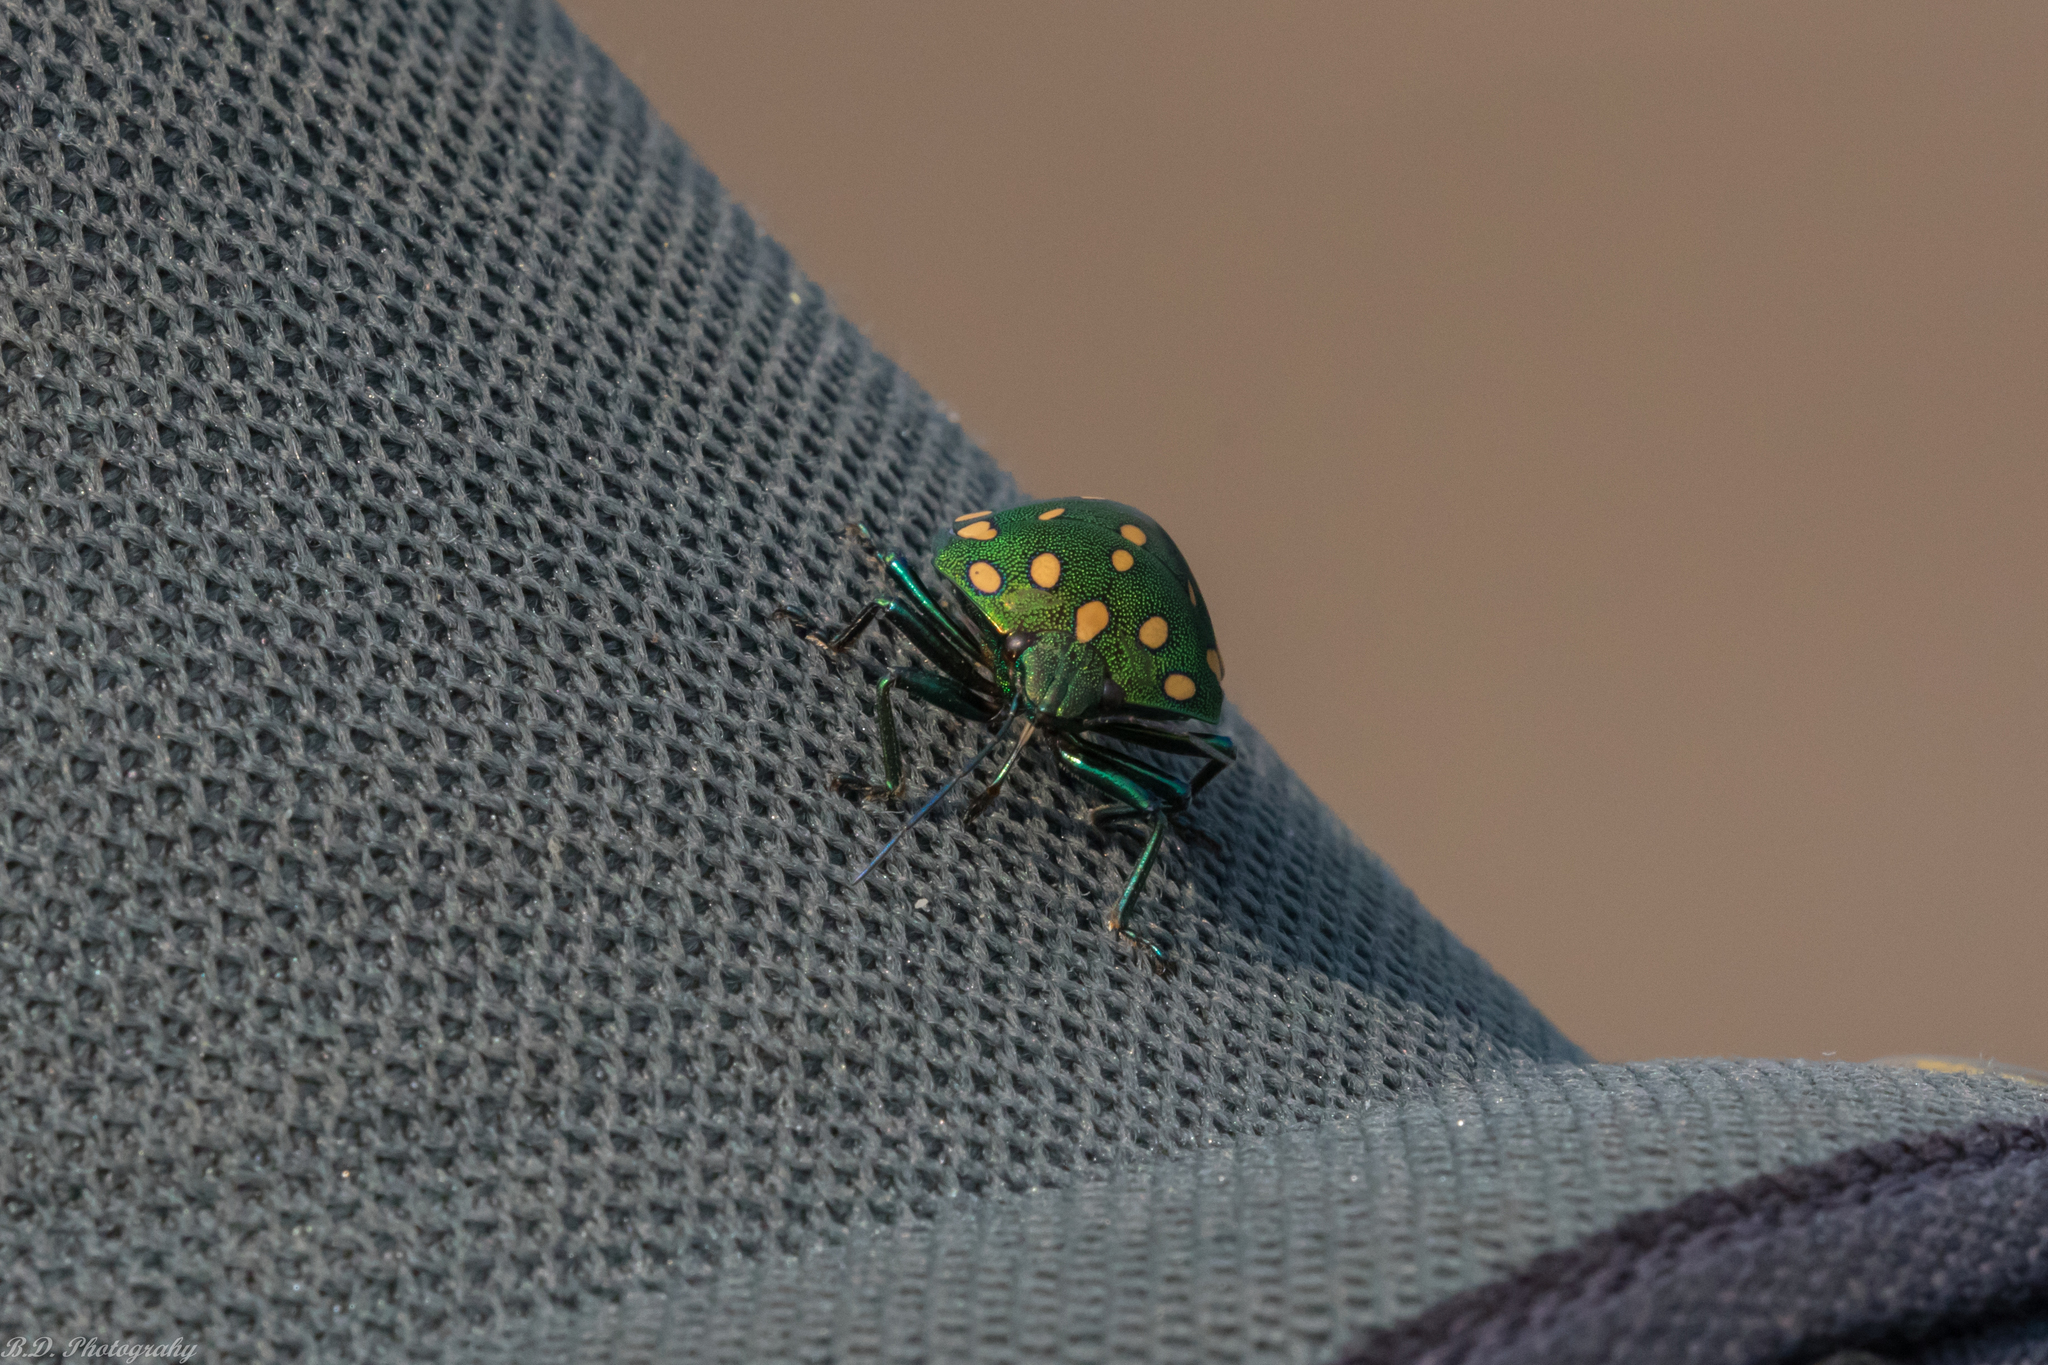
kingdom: Animalia
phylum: Arthropoda
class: Insecta
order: Hemiptera
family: Scutelleridae
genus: Pachycoris
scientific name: Pachycoris torridus
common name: Torrid jewel bug
